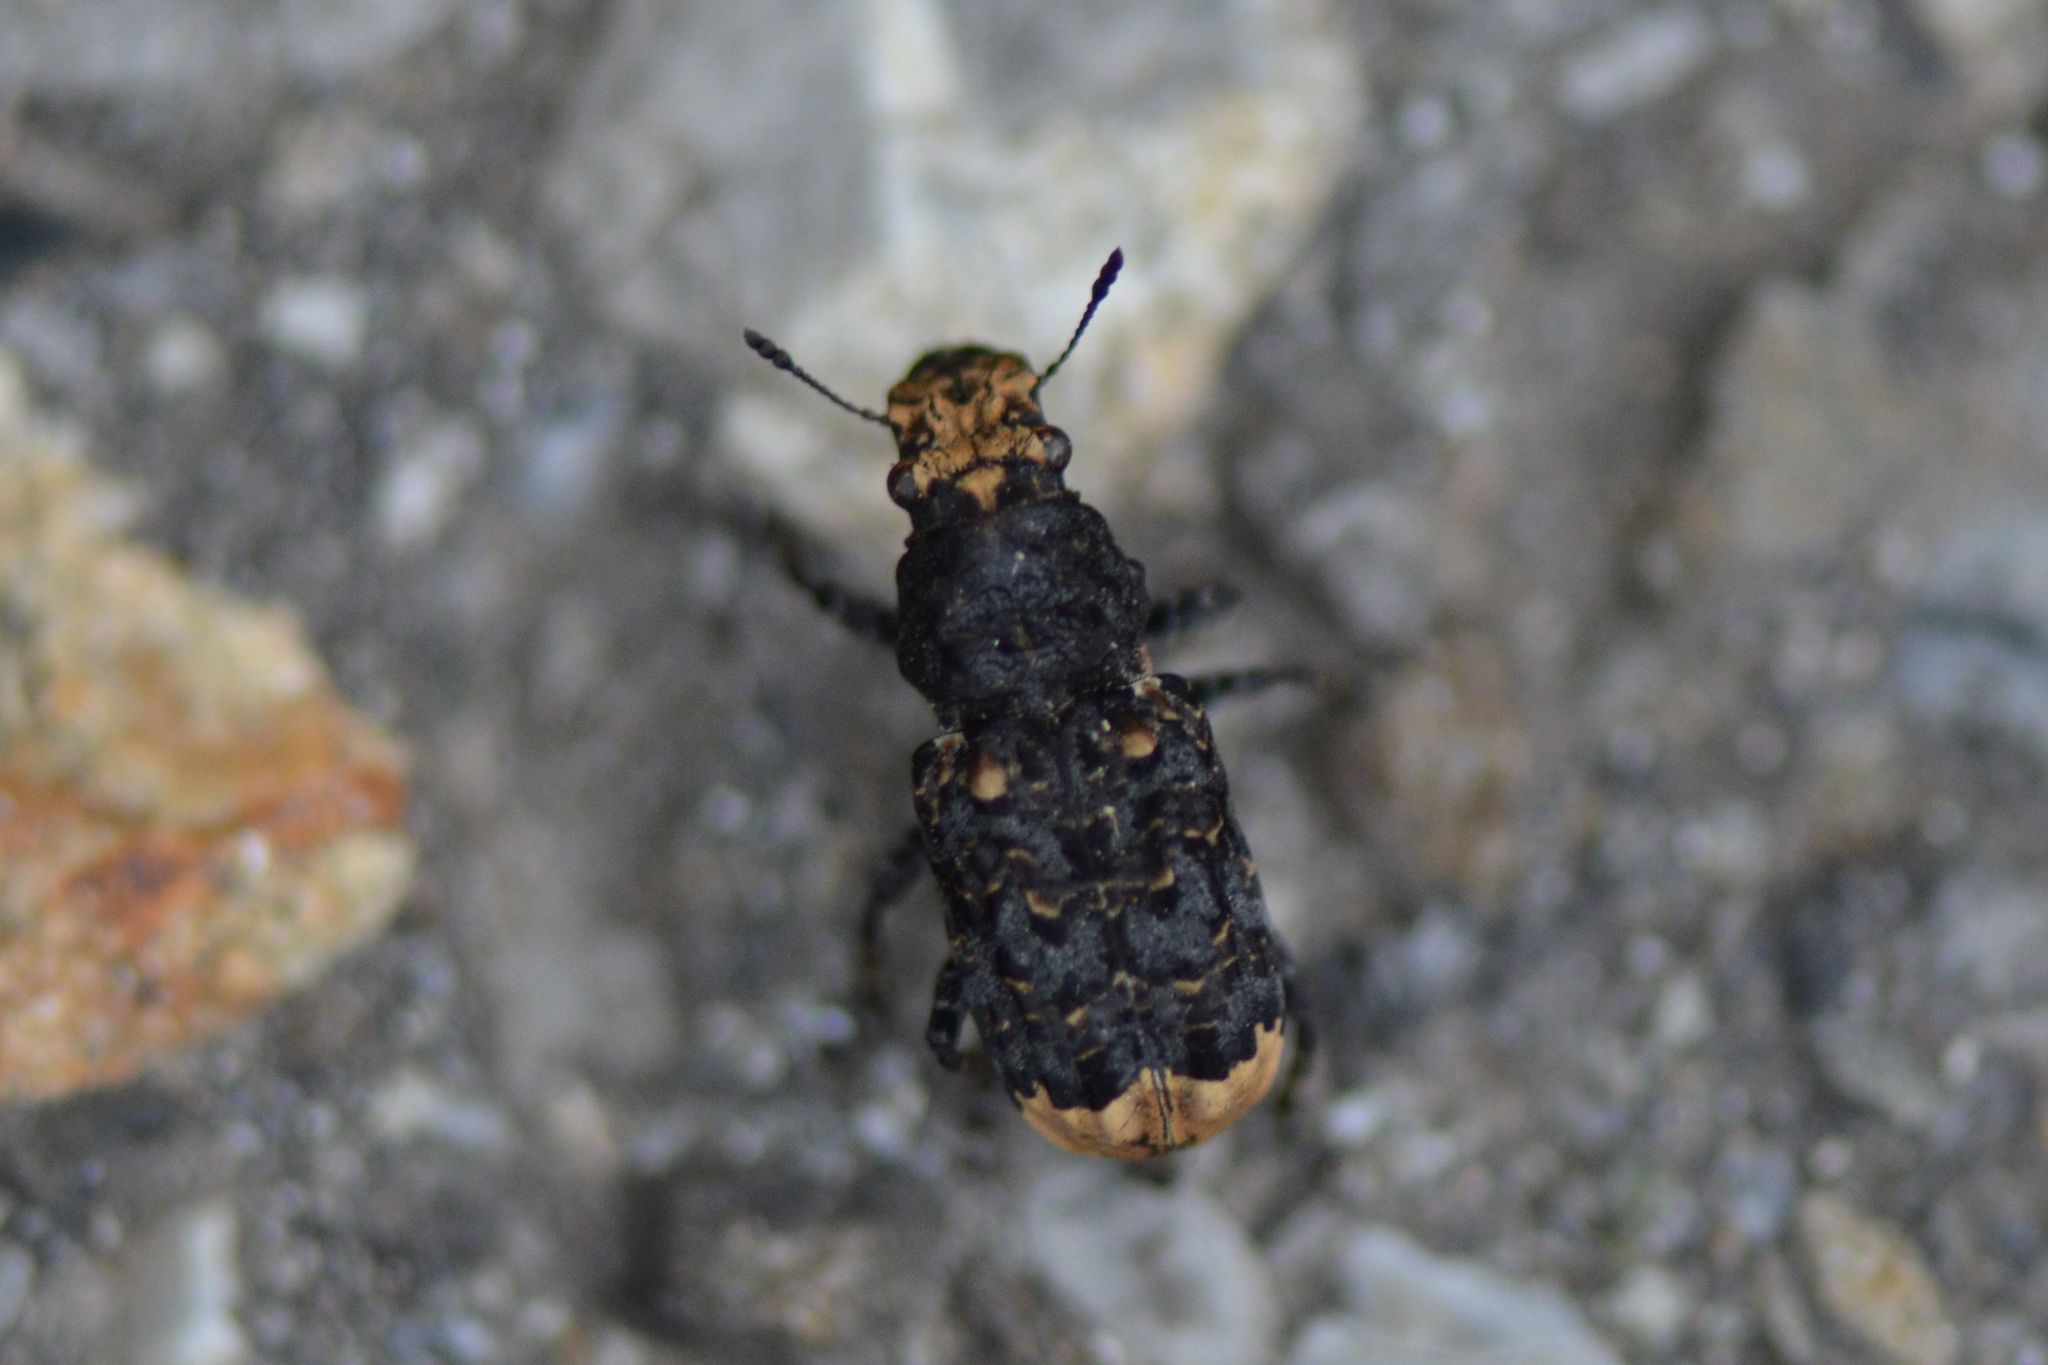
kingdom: Animalia
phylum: Arthropoda
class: Insecta
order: Coleoptera
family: Anthribidae
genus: Platyrhinus
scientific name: Platyrhinus resinosus
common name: Cramp-ball fungus weevil
